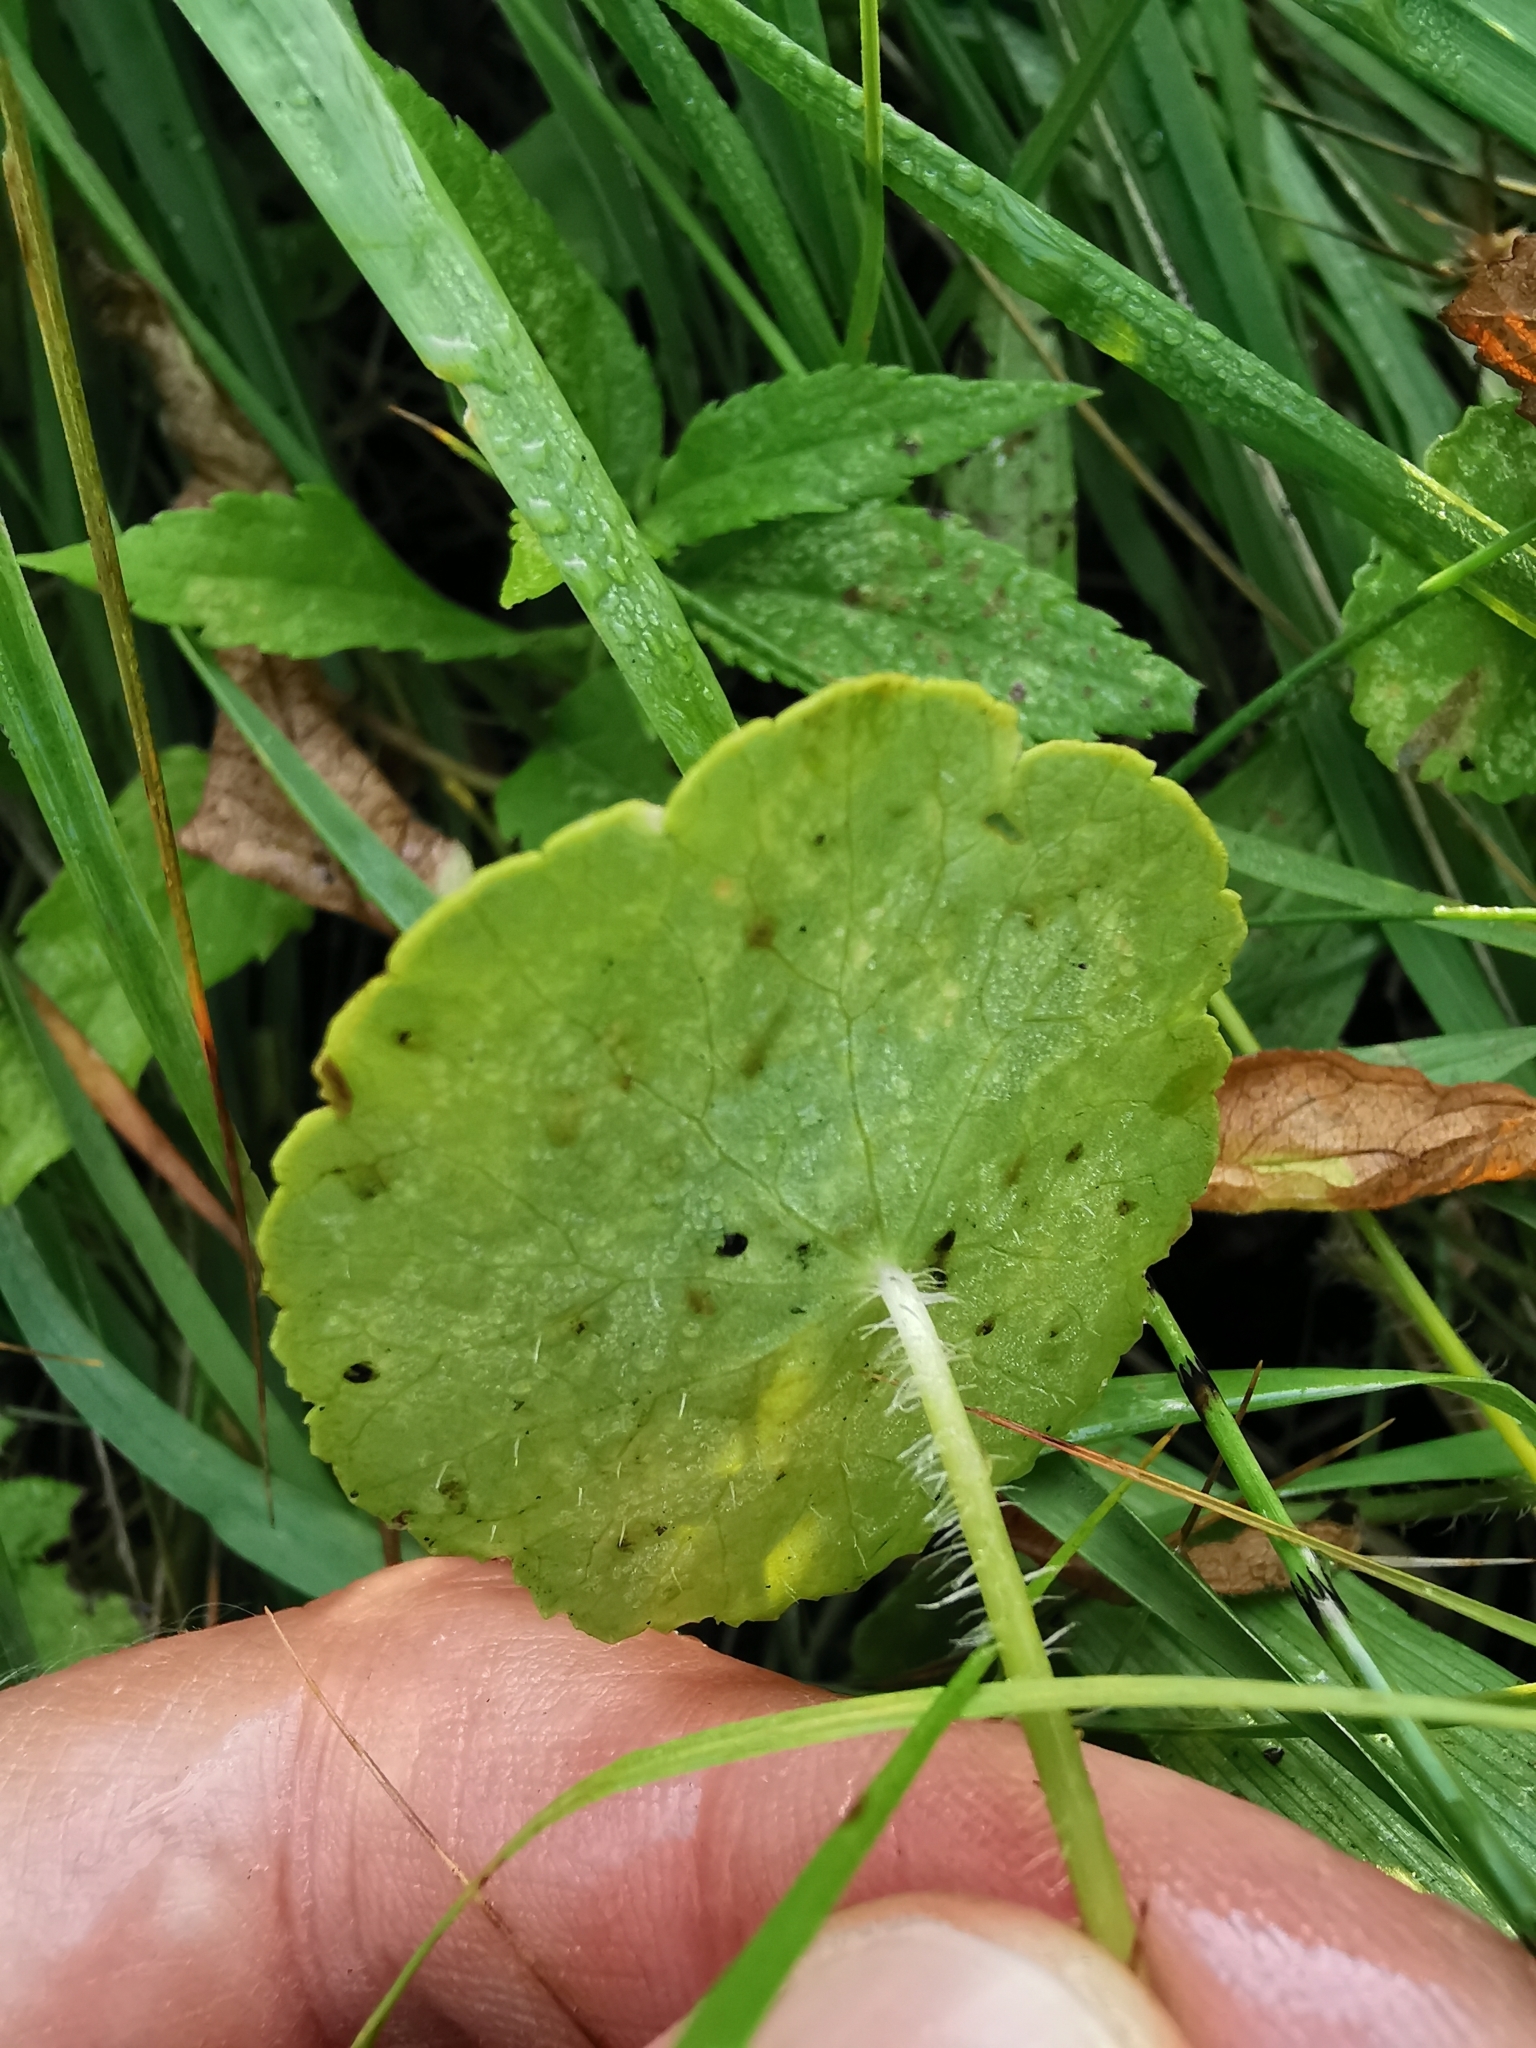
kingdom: Plantae
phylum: Tracheophyta
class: Magnoliopsida
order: Apiales
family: Araliaceae
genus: Hydrocotyle
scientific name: Hydrocotyle vulgaris
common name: Marsh pennywort
